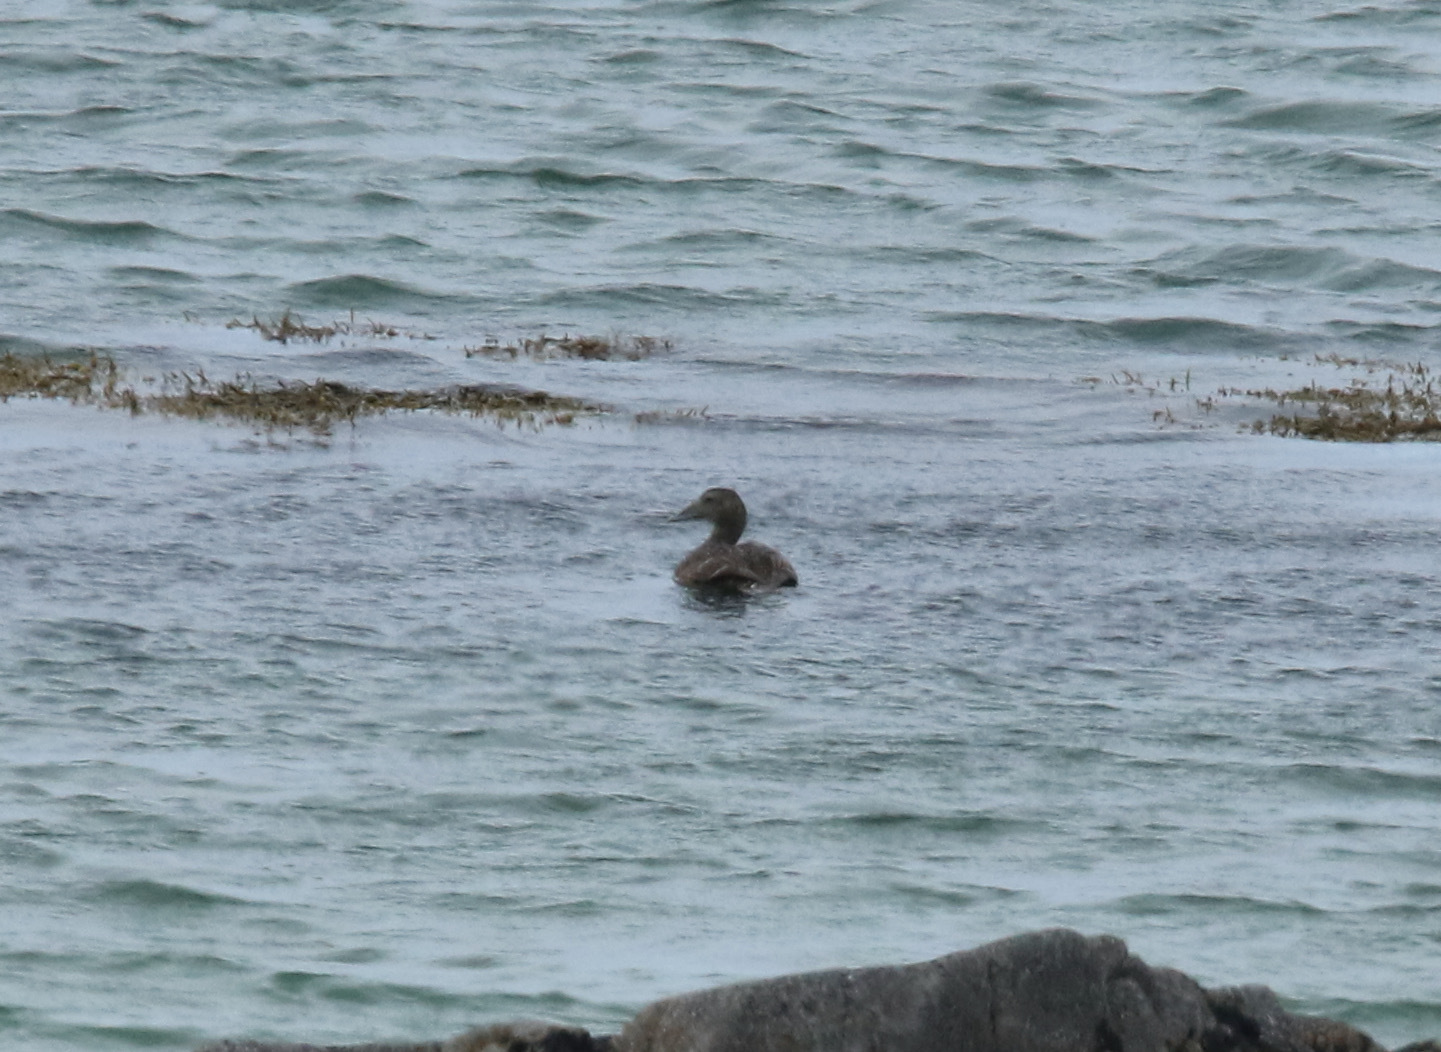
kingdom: Animalia
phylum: Chordata
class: Aves
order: Anseriformes
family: Anatidae
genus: Somateria
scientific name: Somateria mollissima
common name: Common eider
